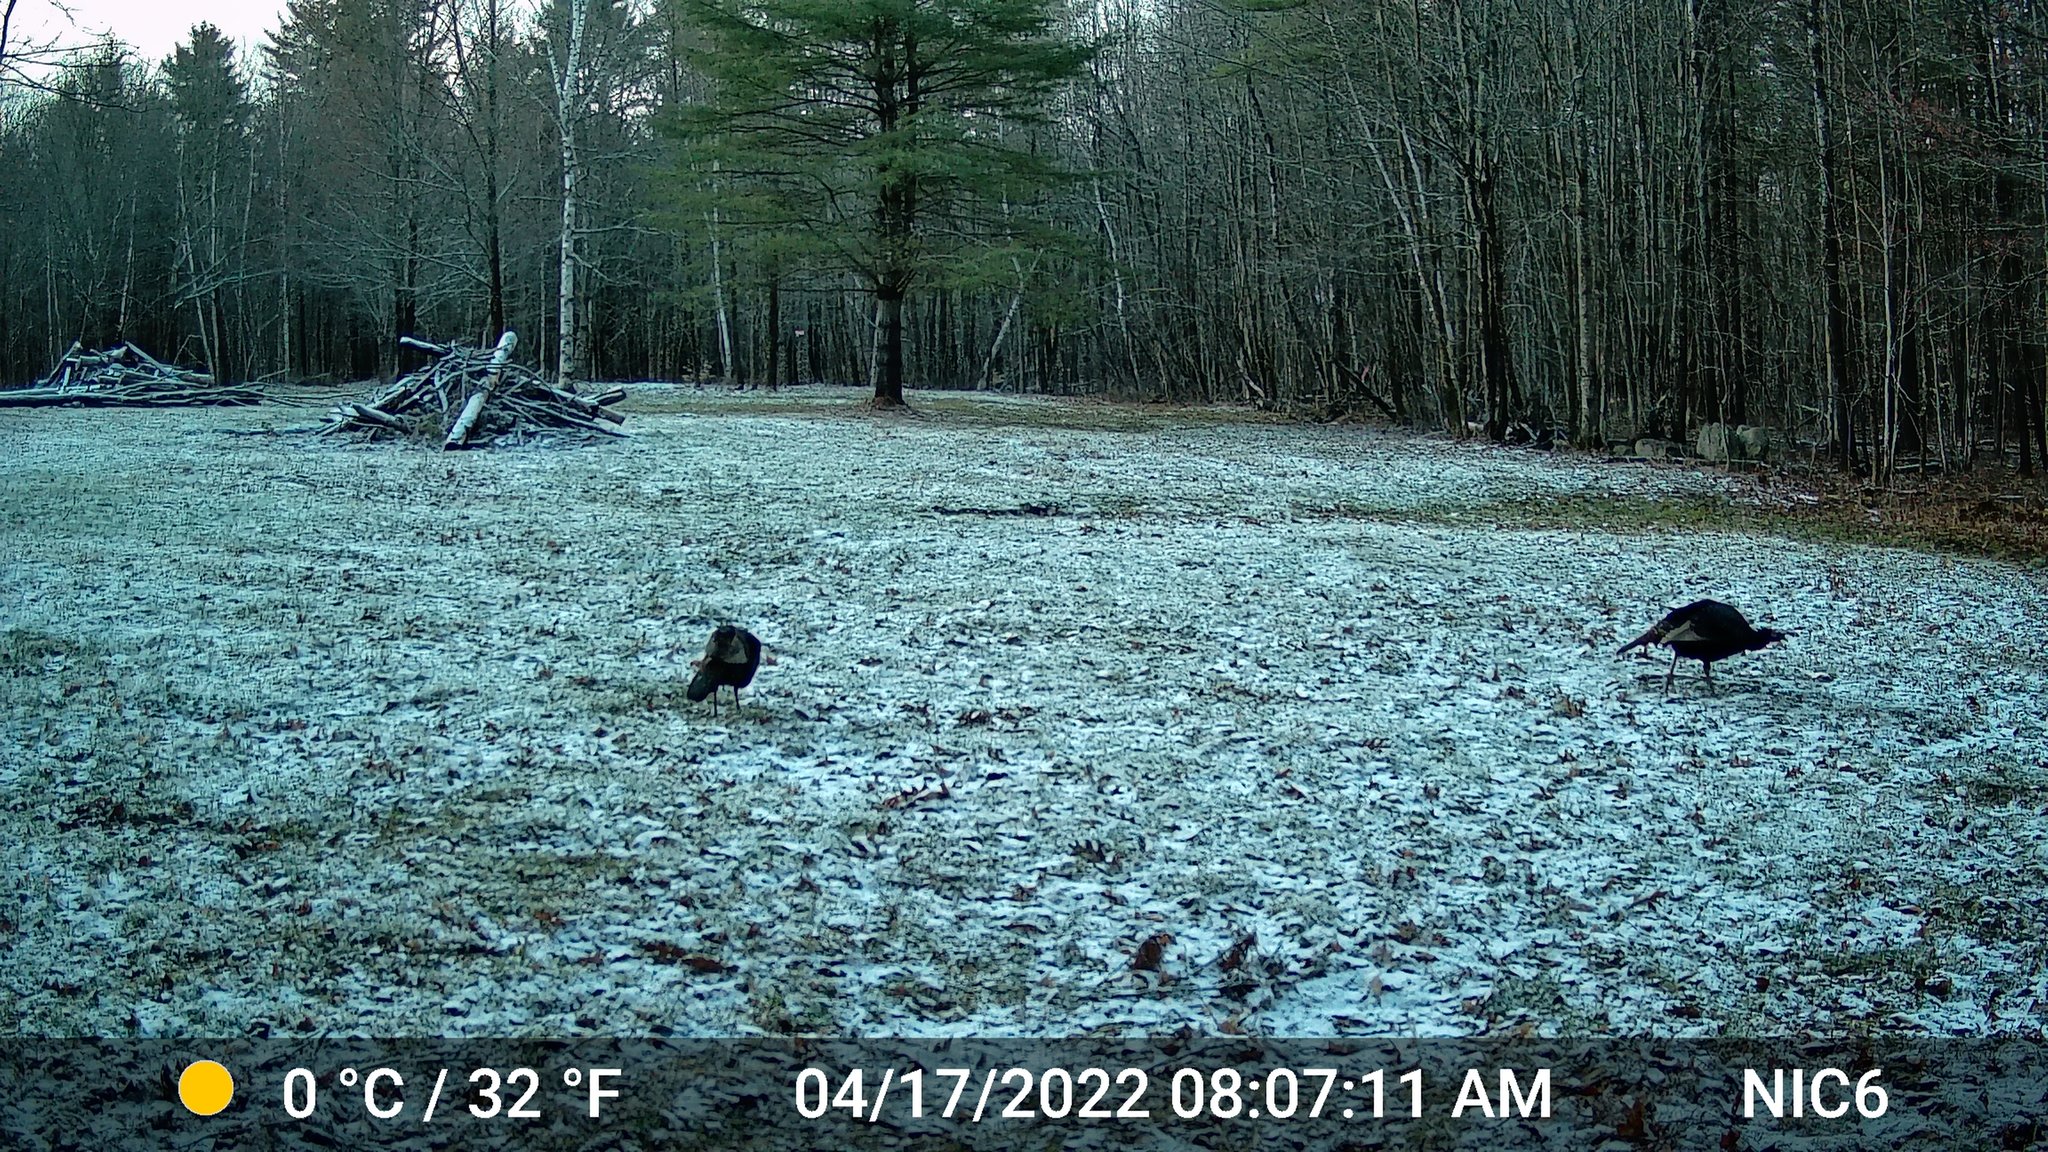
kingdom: Animalia
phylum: Chordata
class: Aves
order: Galliformes
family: Phasianidae
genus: Meleagris
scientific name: Meleagris gallopavo
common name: Wild turkey
